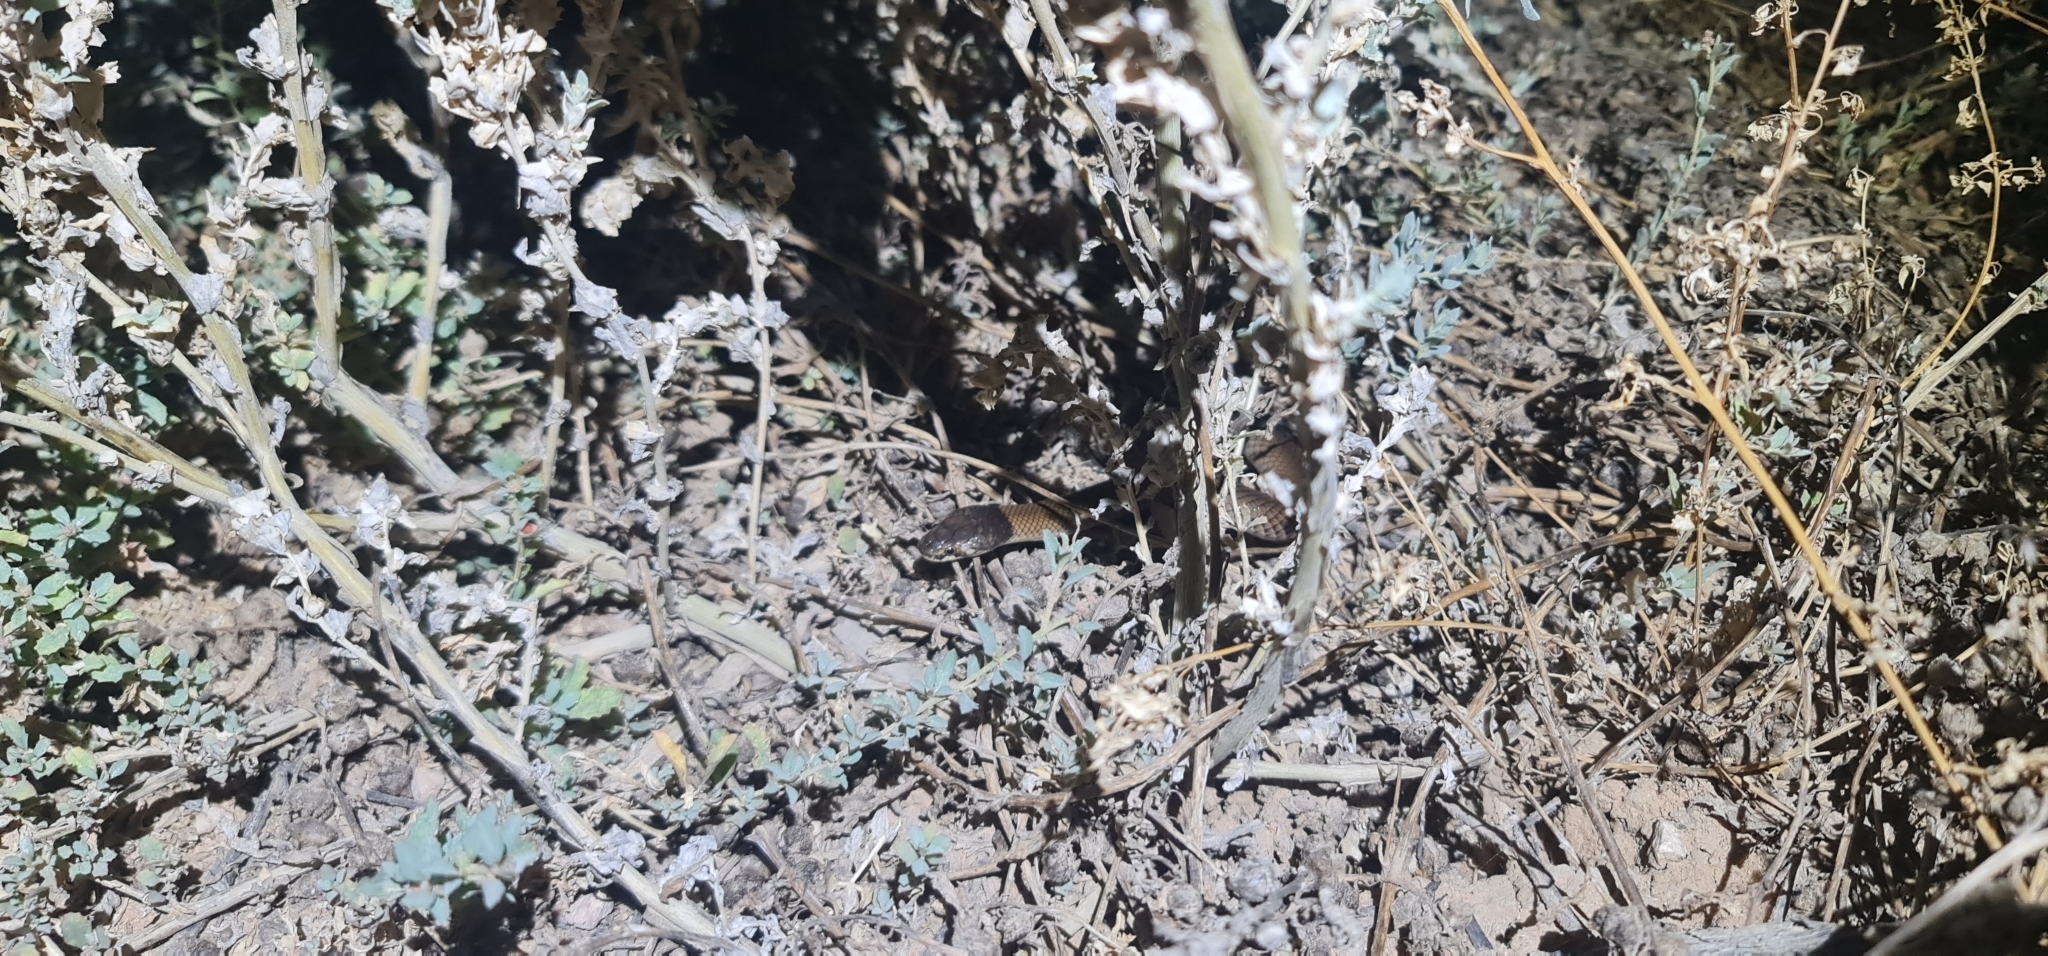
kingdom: Animalia
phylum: Chordata
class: Squamata
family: Elapidae
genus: Suta
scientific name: Suta suta
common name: Curl snake
